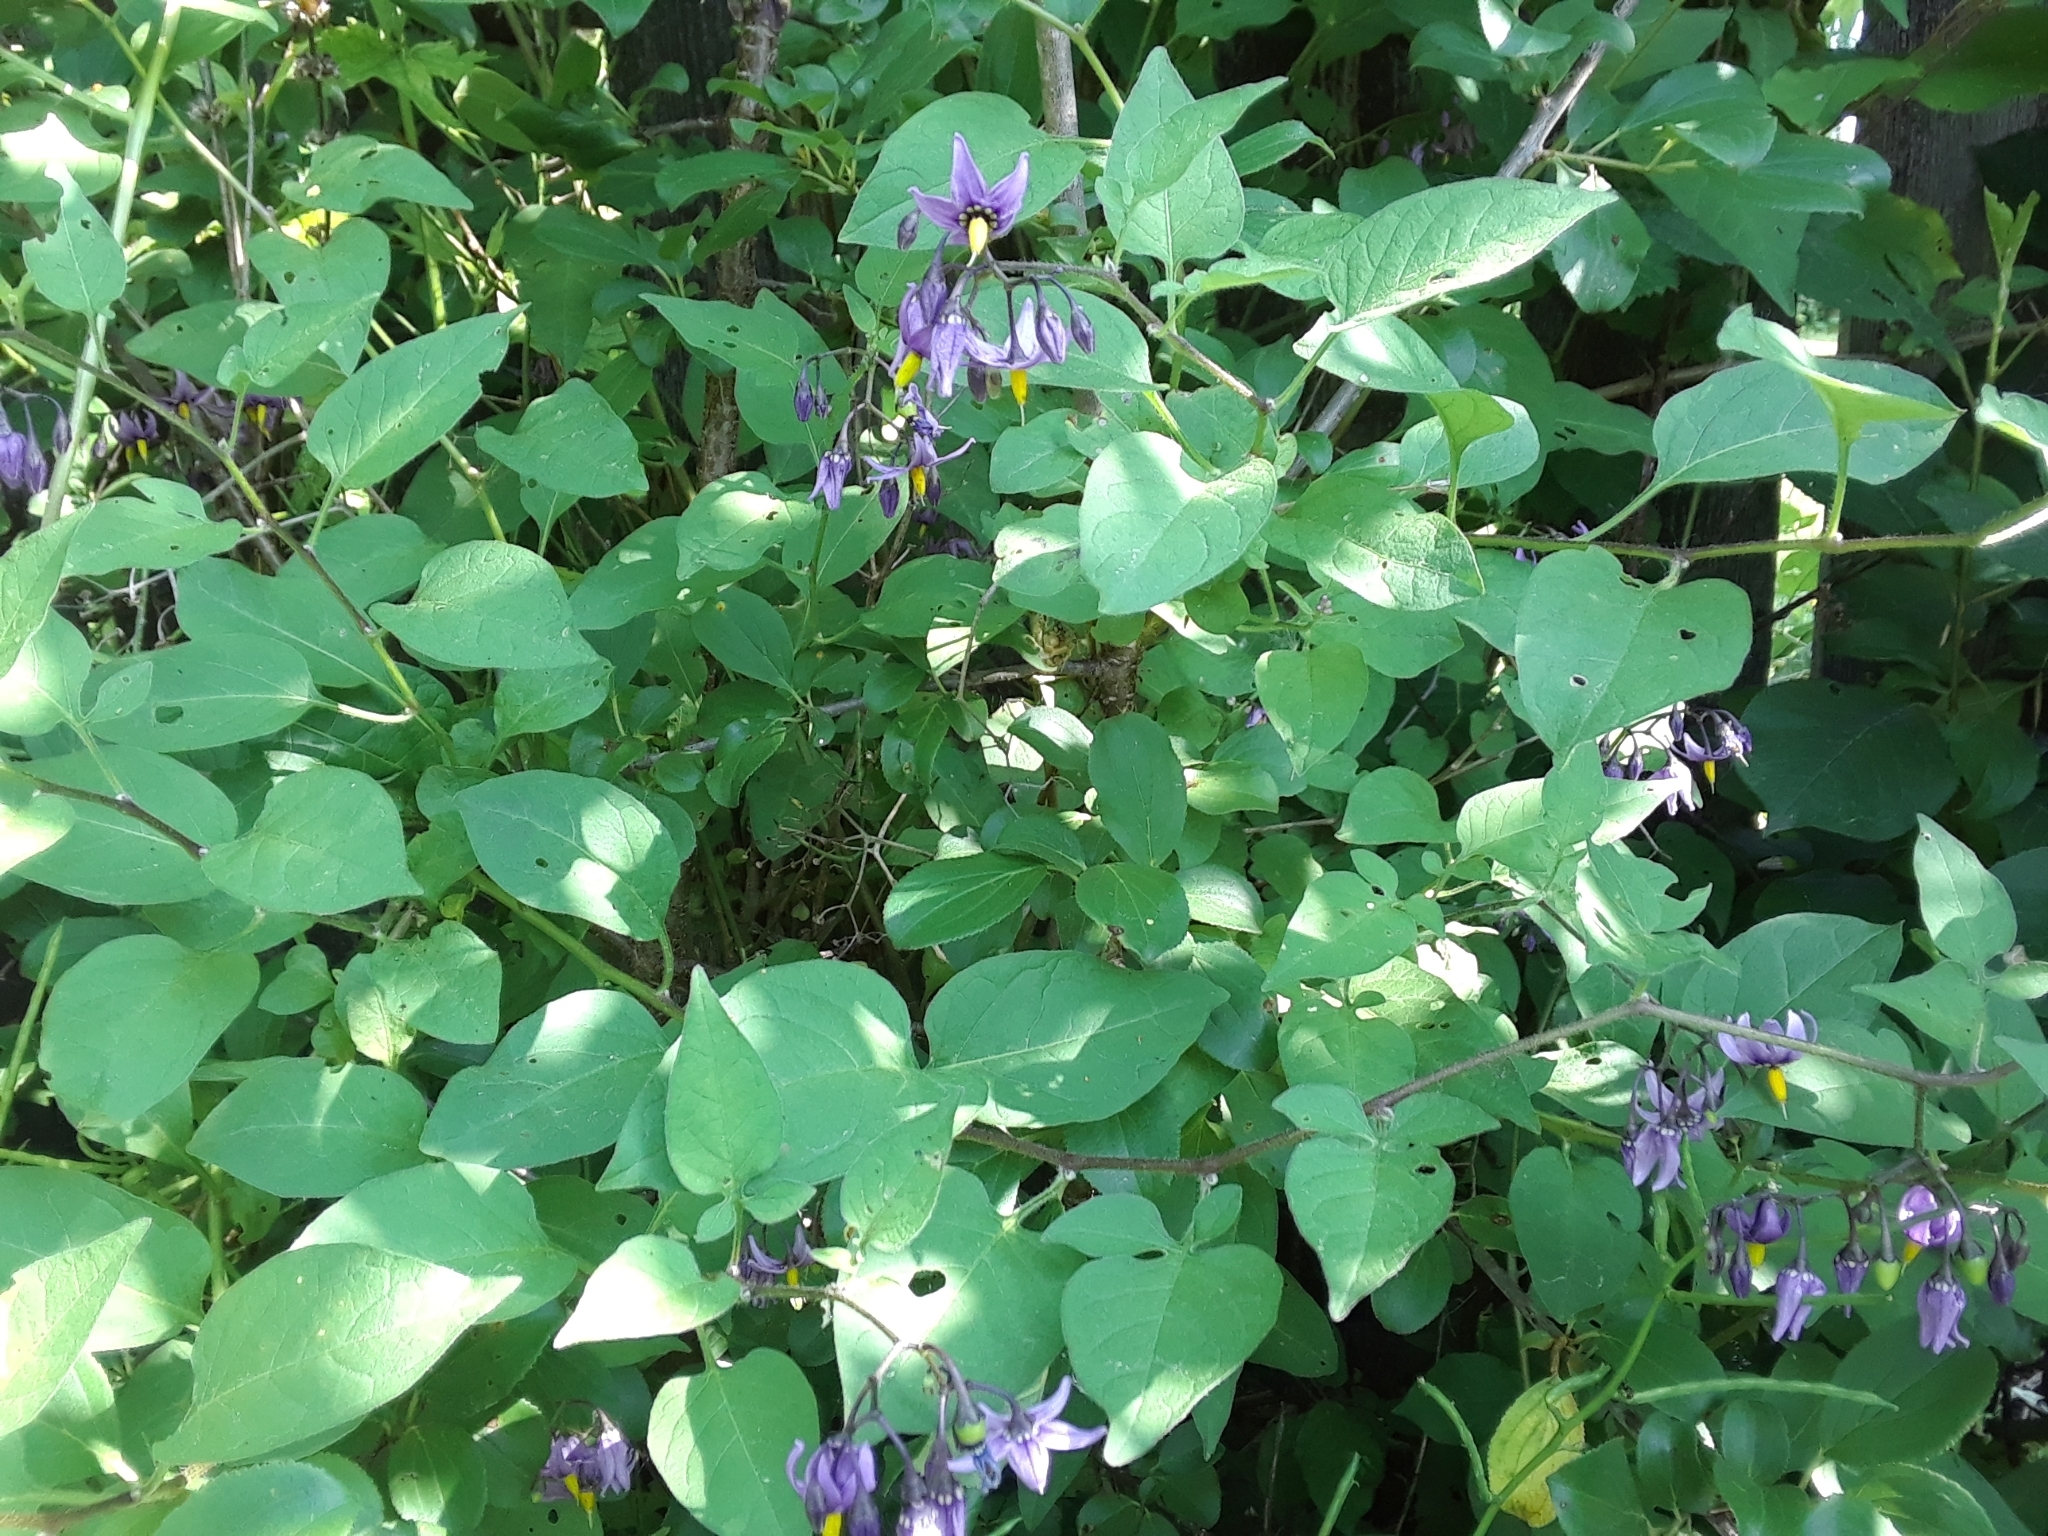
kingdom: Plantae
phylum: Tracheophyta
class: Magnoliopsida
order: Solanales
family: Solanaceae
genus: Solanum
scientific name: Solanum dulcamara
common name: Climbing nightshade
